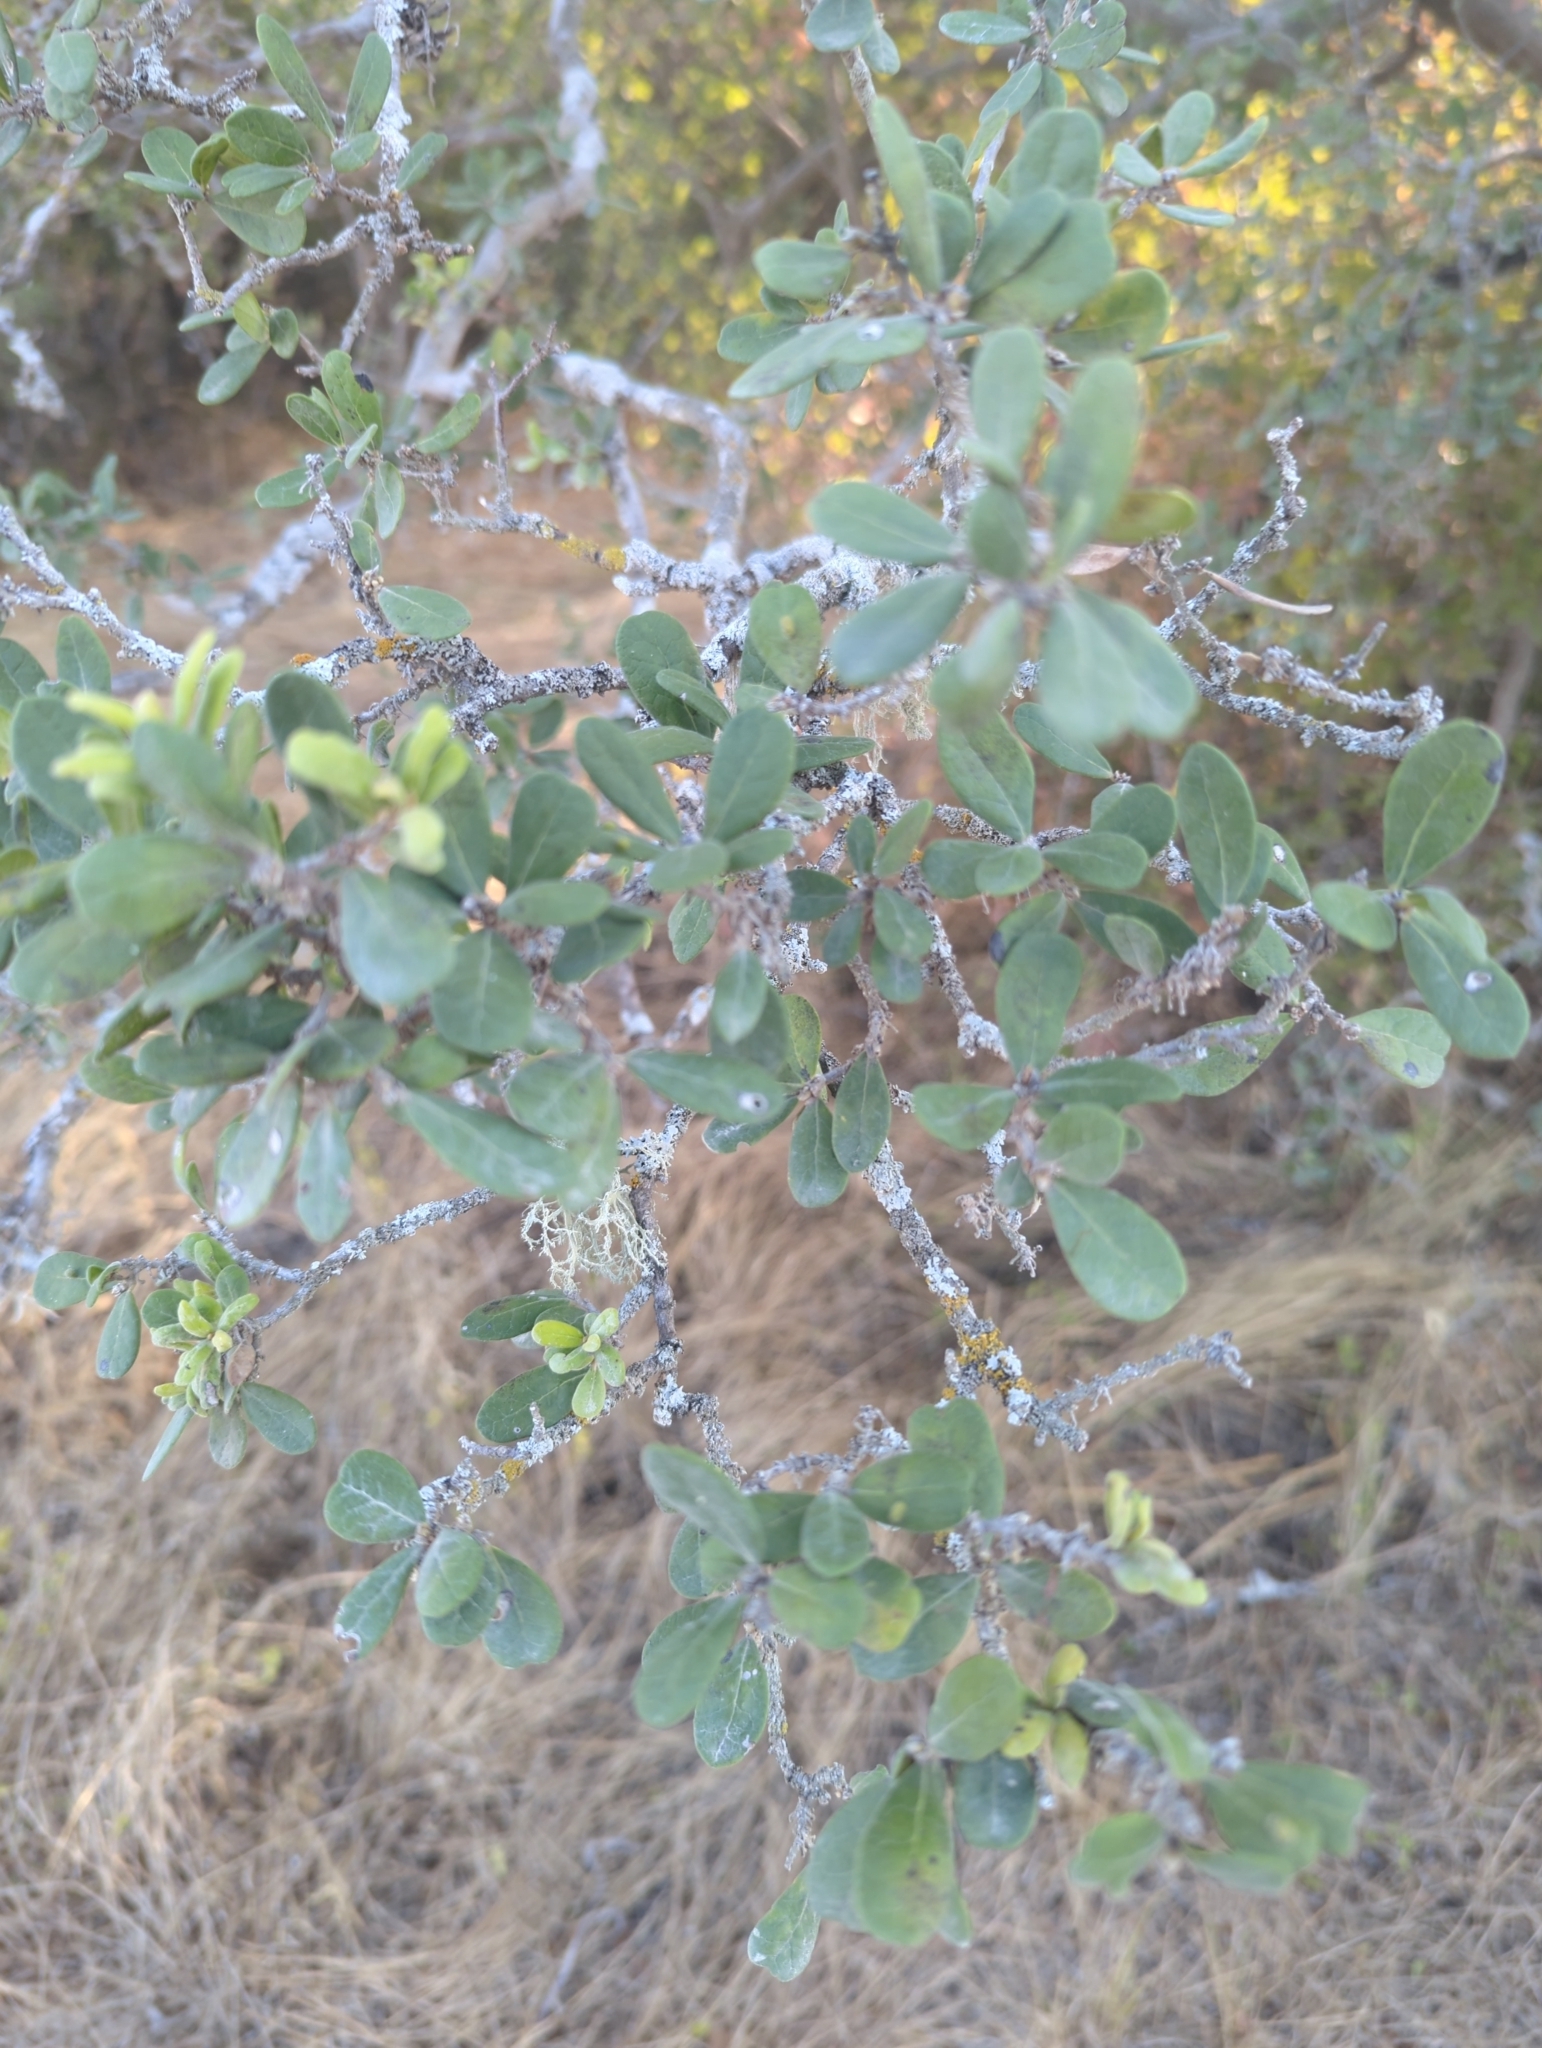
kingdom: Plantae
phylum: Tracheophyta
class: Magnoliopsida
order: Ericales
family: Ebenaceae
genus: Diospyros
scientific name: Diospyros texana
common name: Texas persimmon
